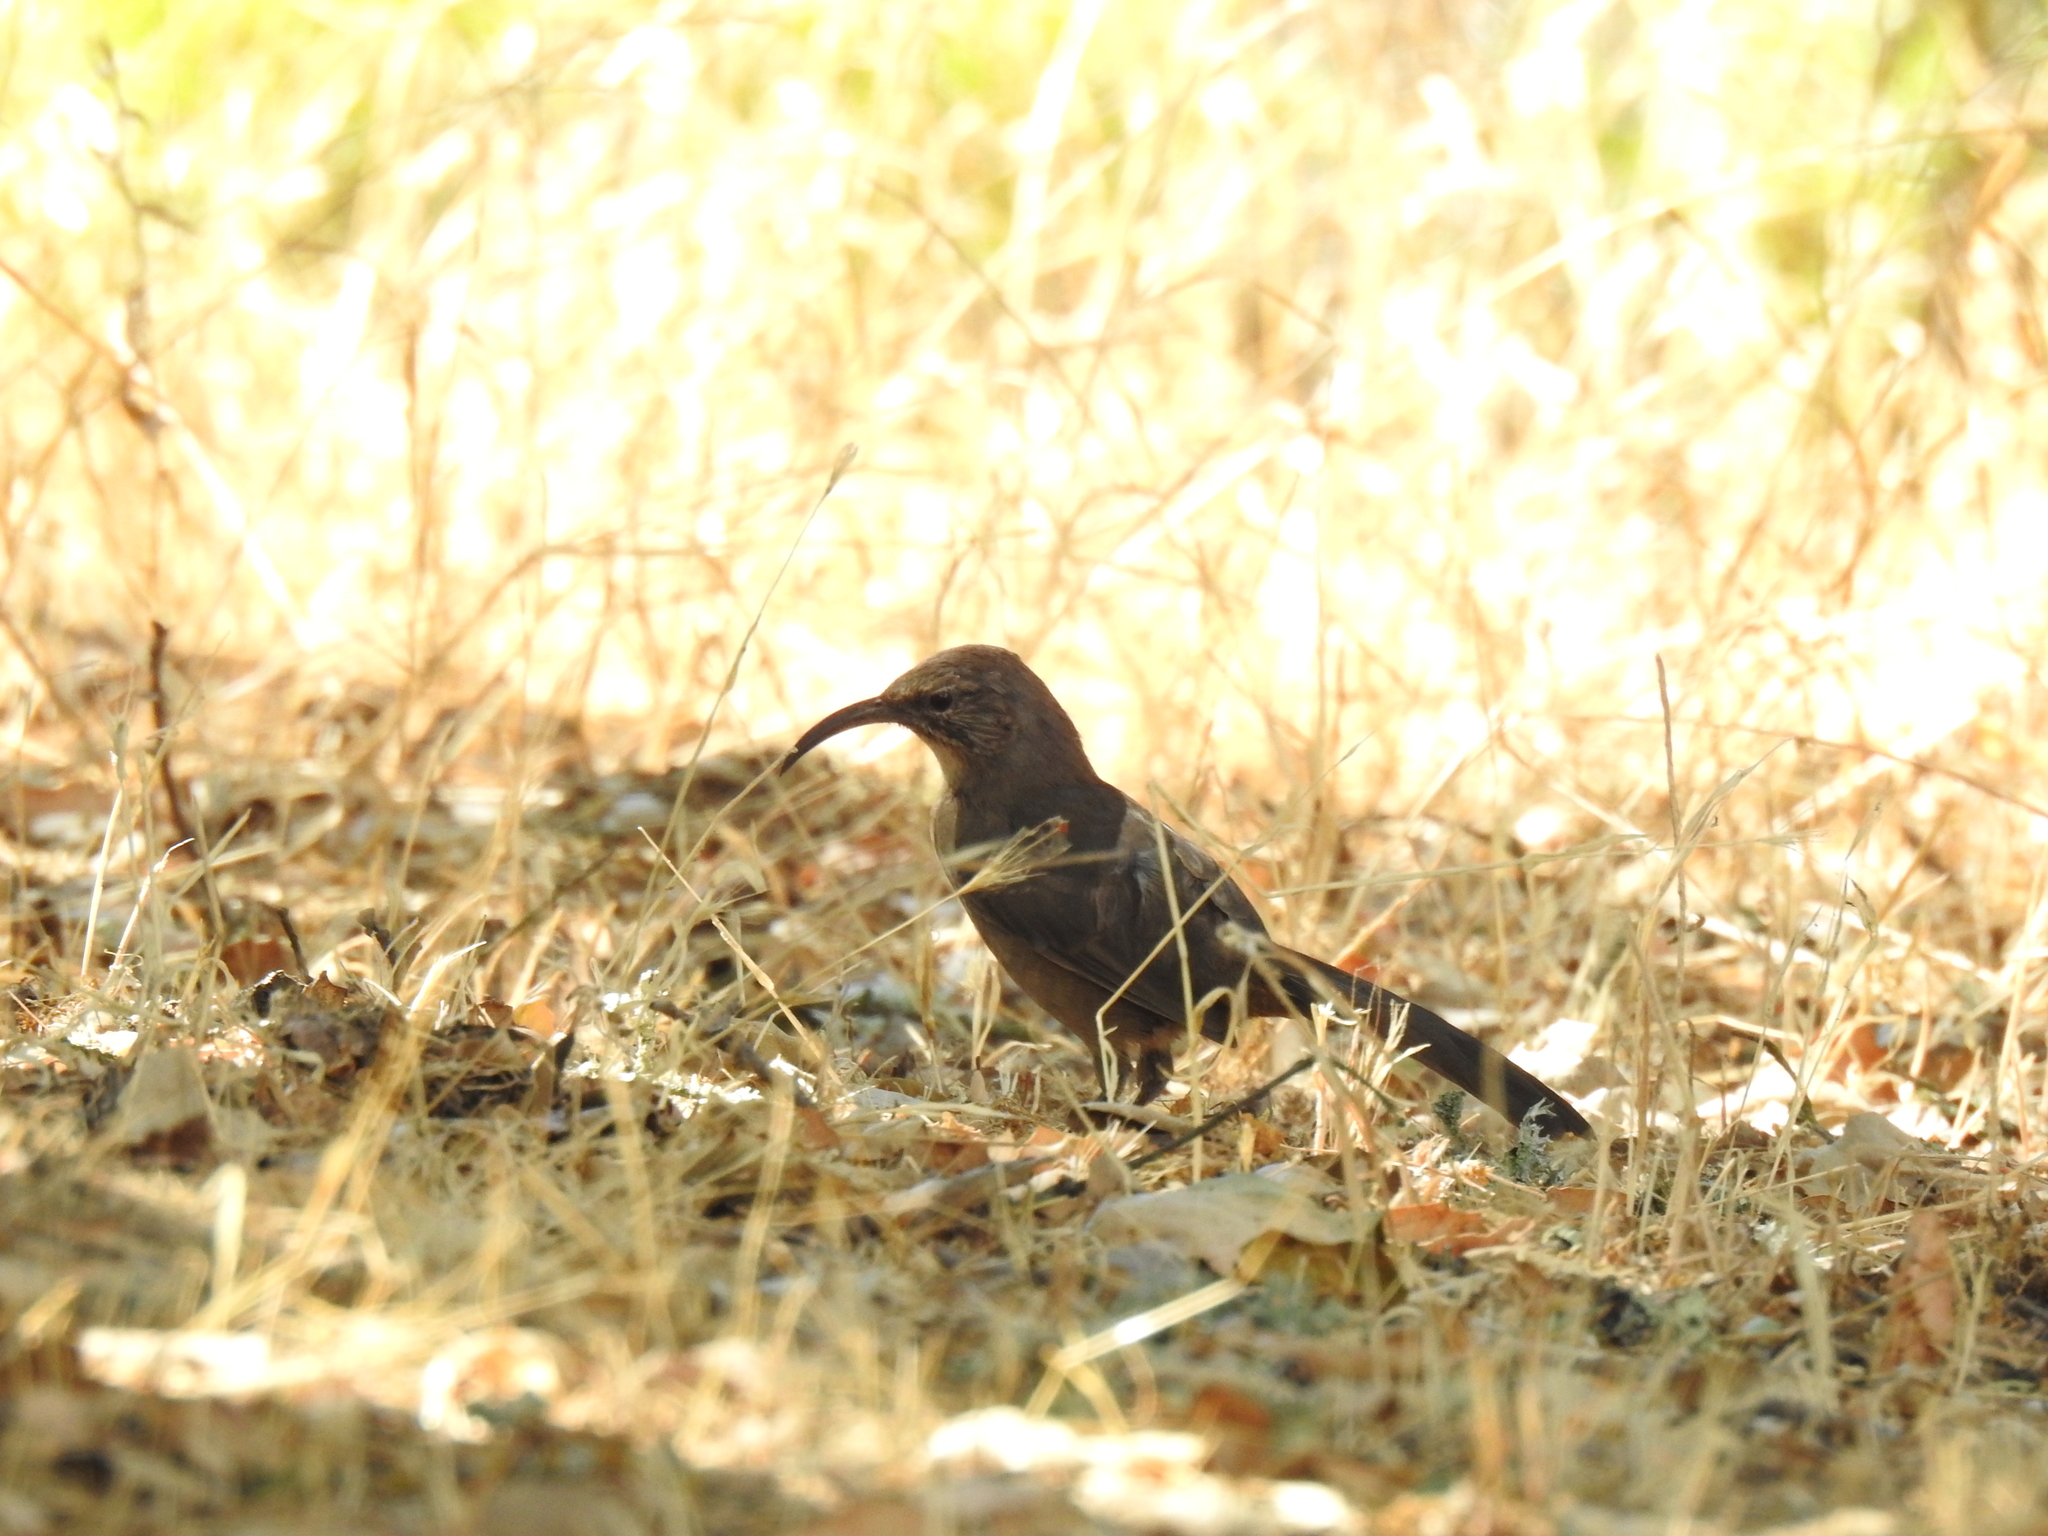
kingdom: Animalia
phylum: Chordata
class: Aves
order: Passeriformes
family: Mimidae
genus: Toxostoma
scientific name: Toxostoma redivivum
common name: California thrasher
